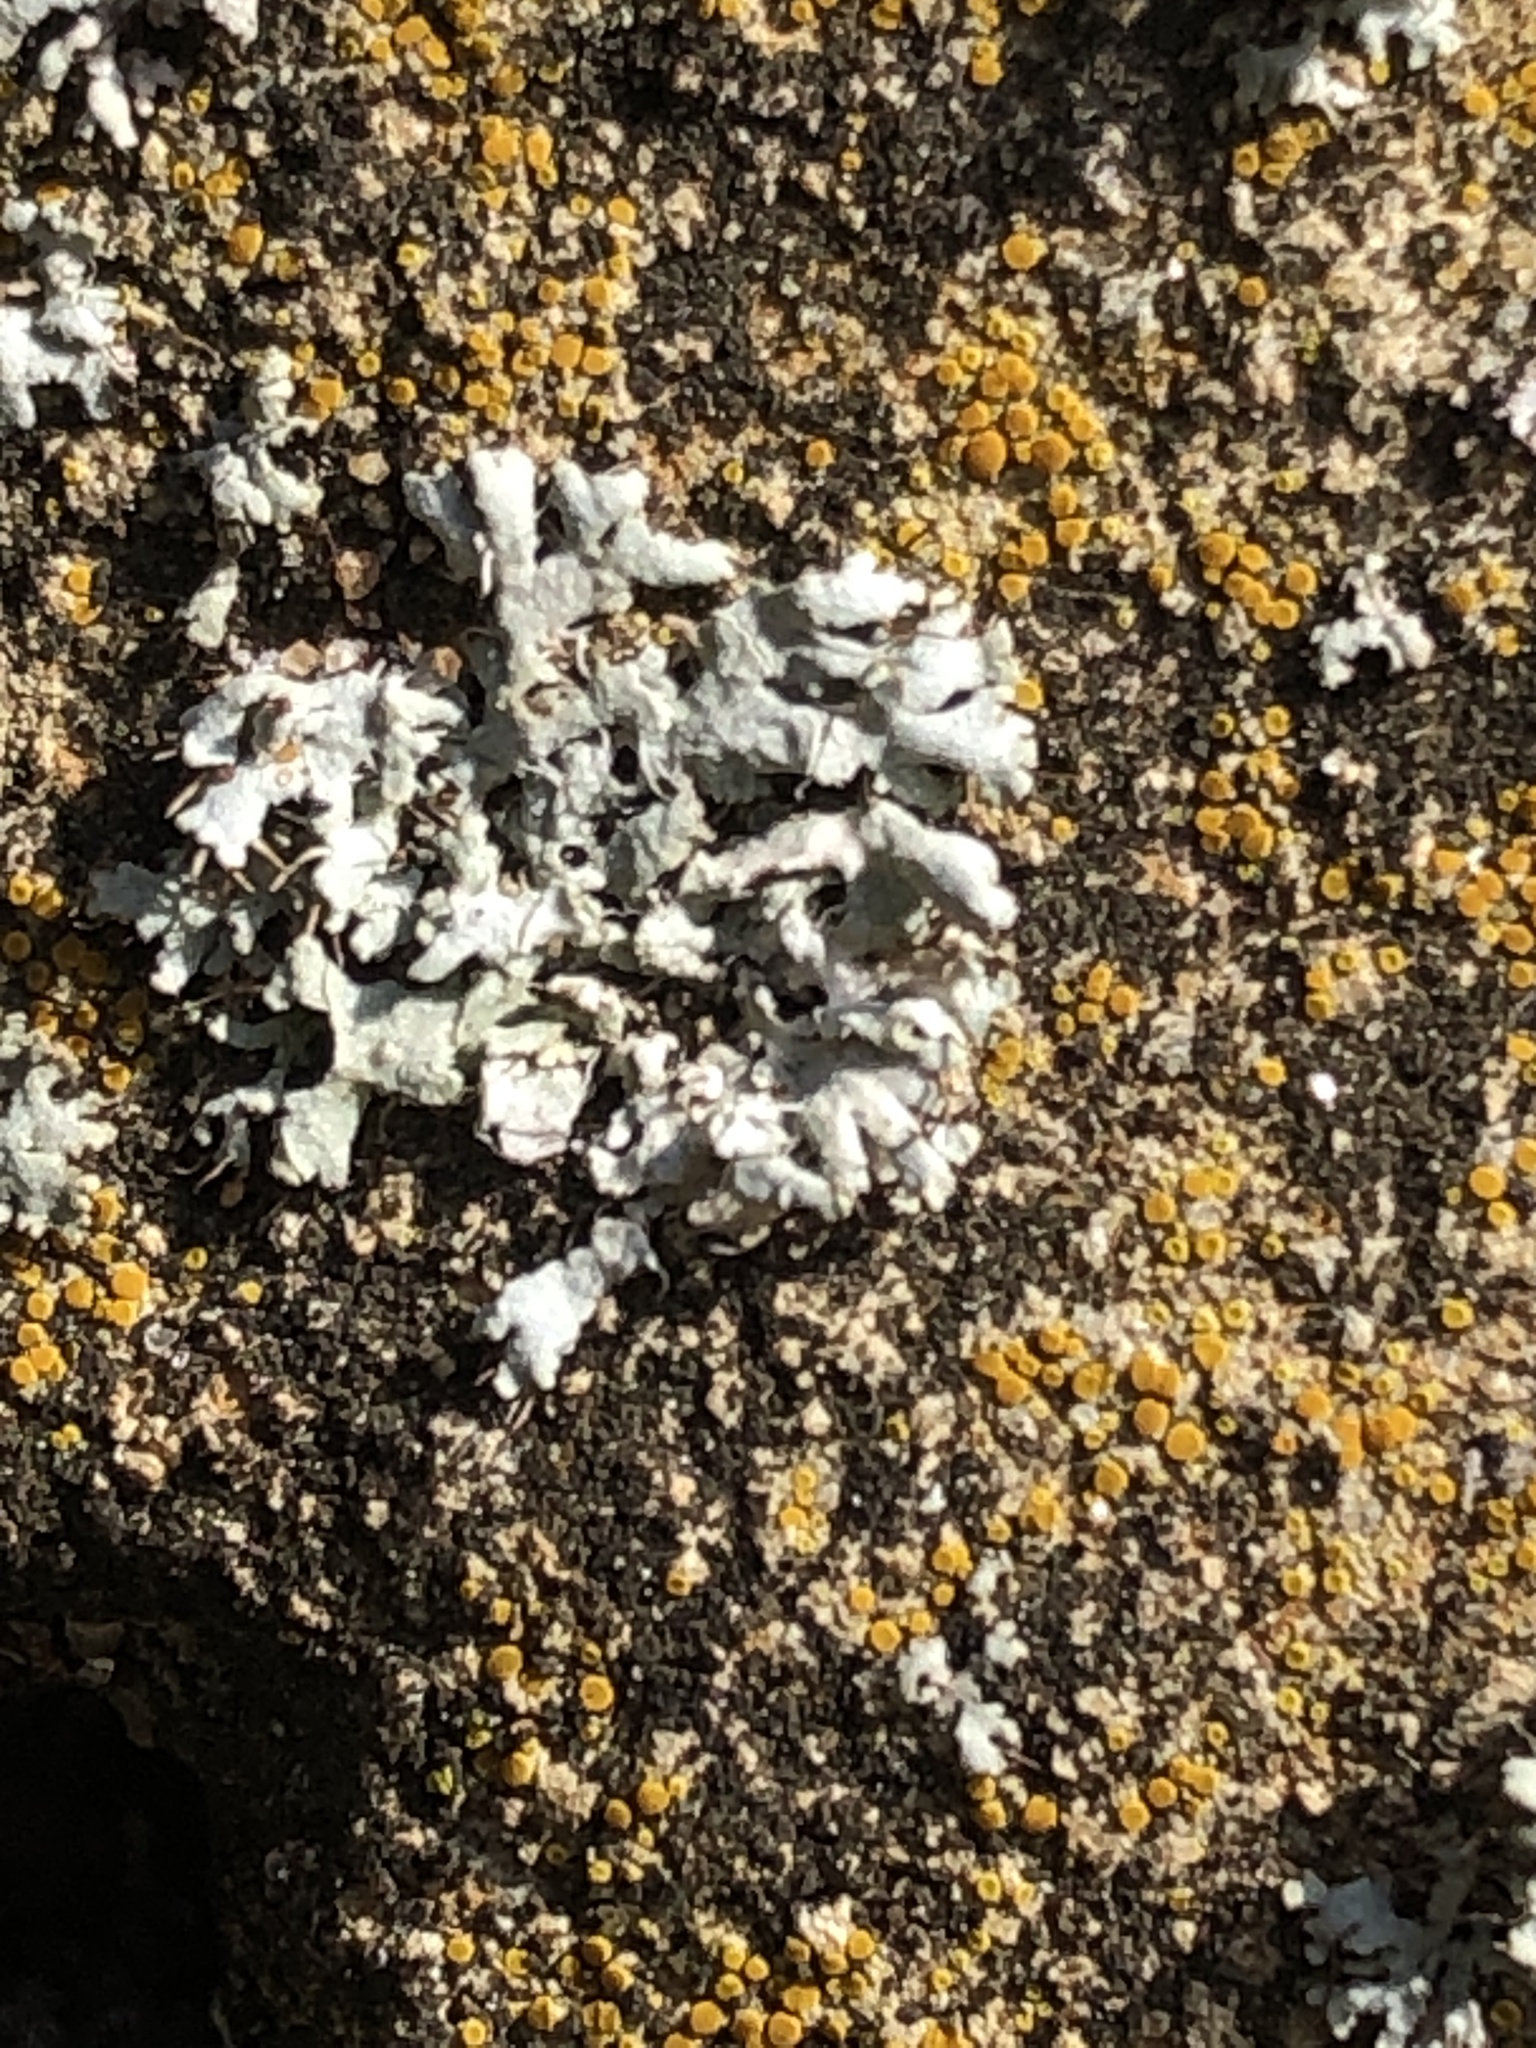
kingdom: Fungi
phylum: Ascomycota
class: Lecanoromycetes
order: Caliciales
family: Physciaceae
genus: Physcia
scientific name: Physcia adscendens
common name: Hooded rosette lichen
